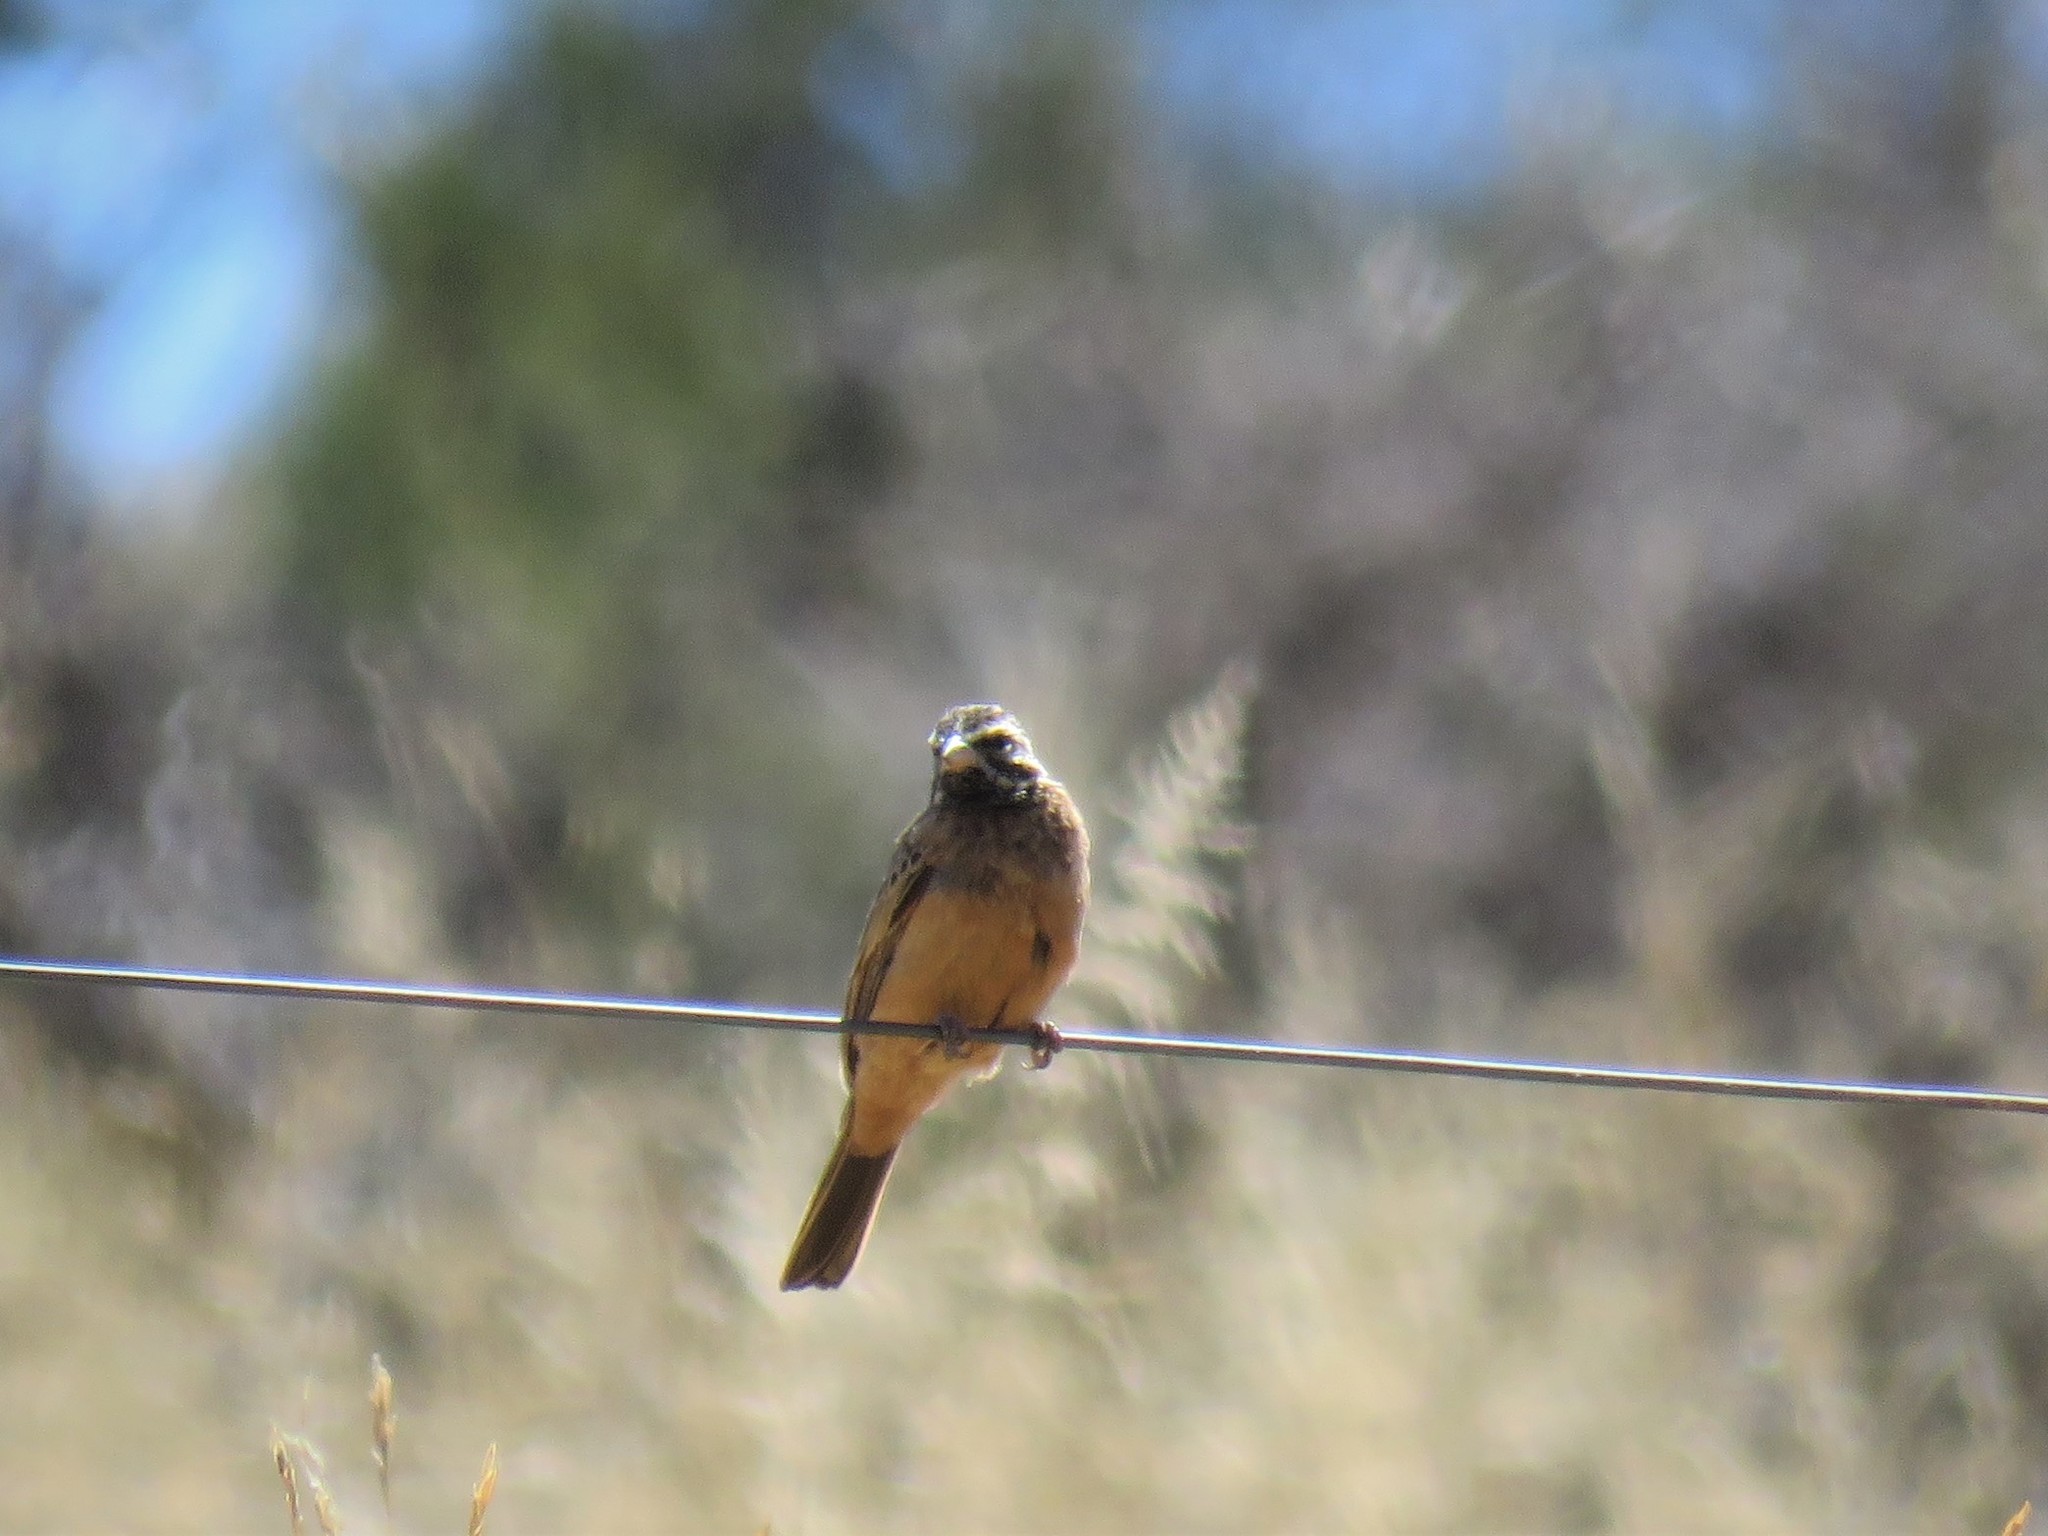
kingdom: Animalia
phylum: Chordata
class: Aves
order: Passeriformes
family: Emberizidae
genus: Emberiza
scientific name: Emberiza tahapisi
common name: Cinnamon-breasted bunting
